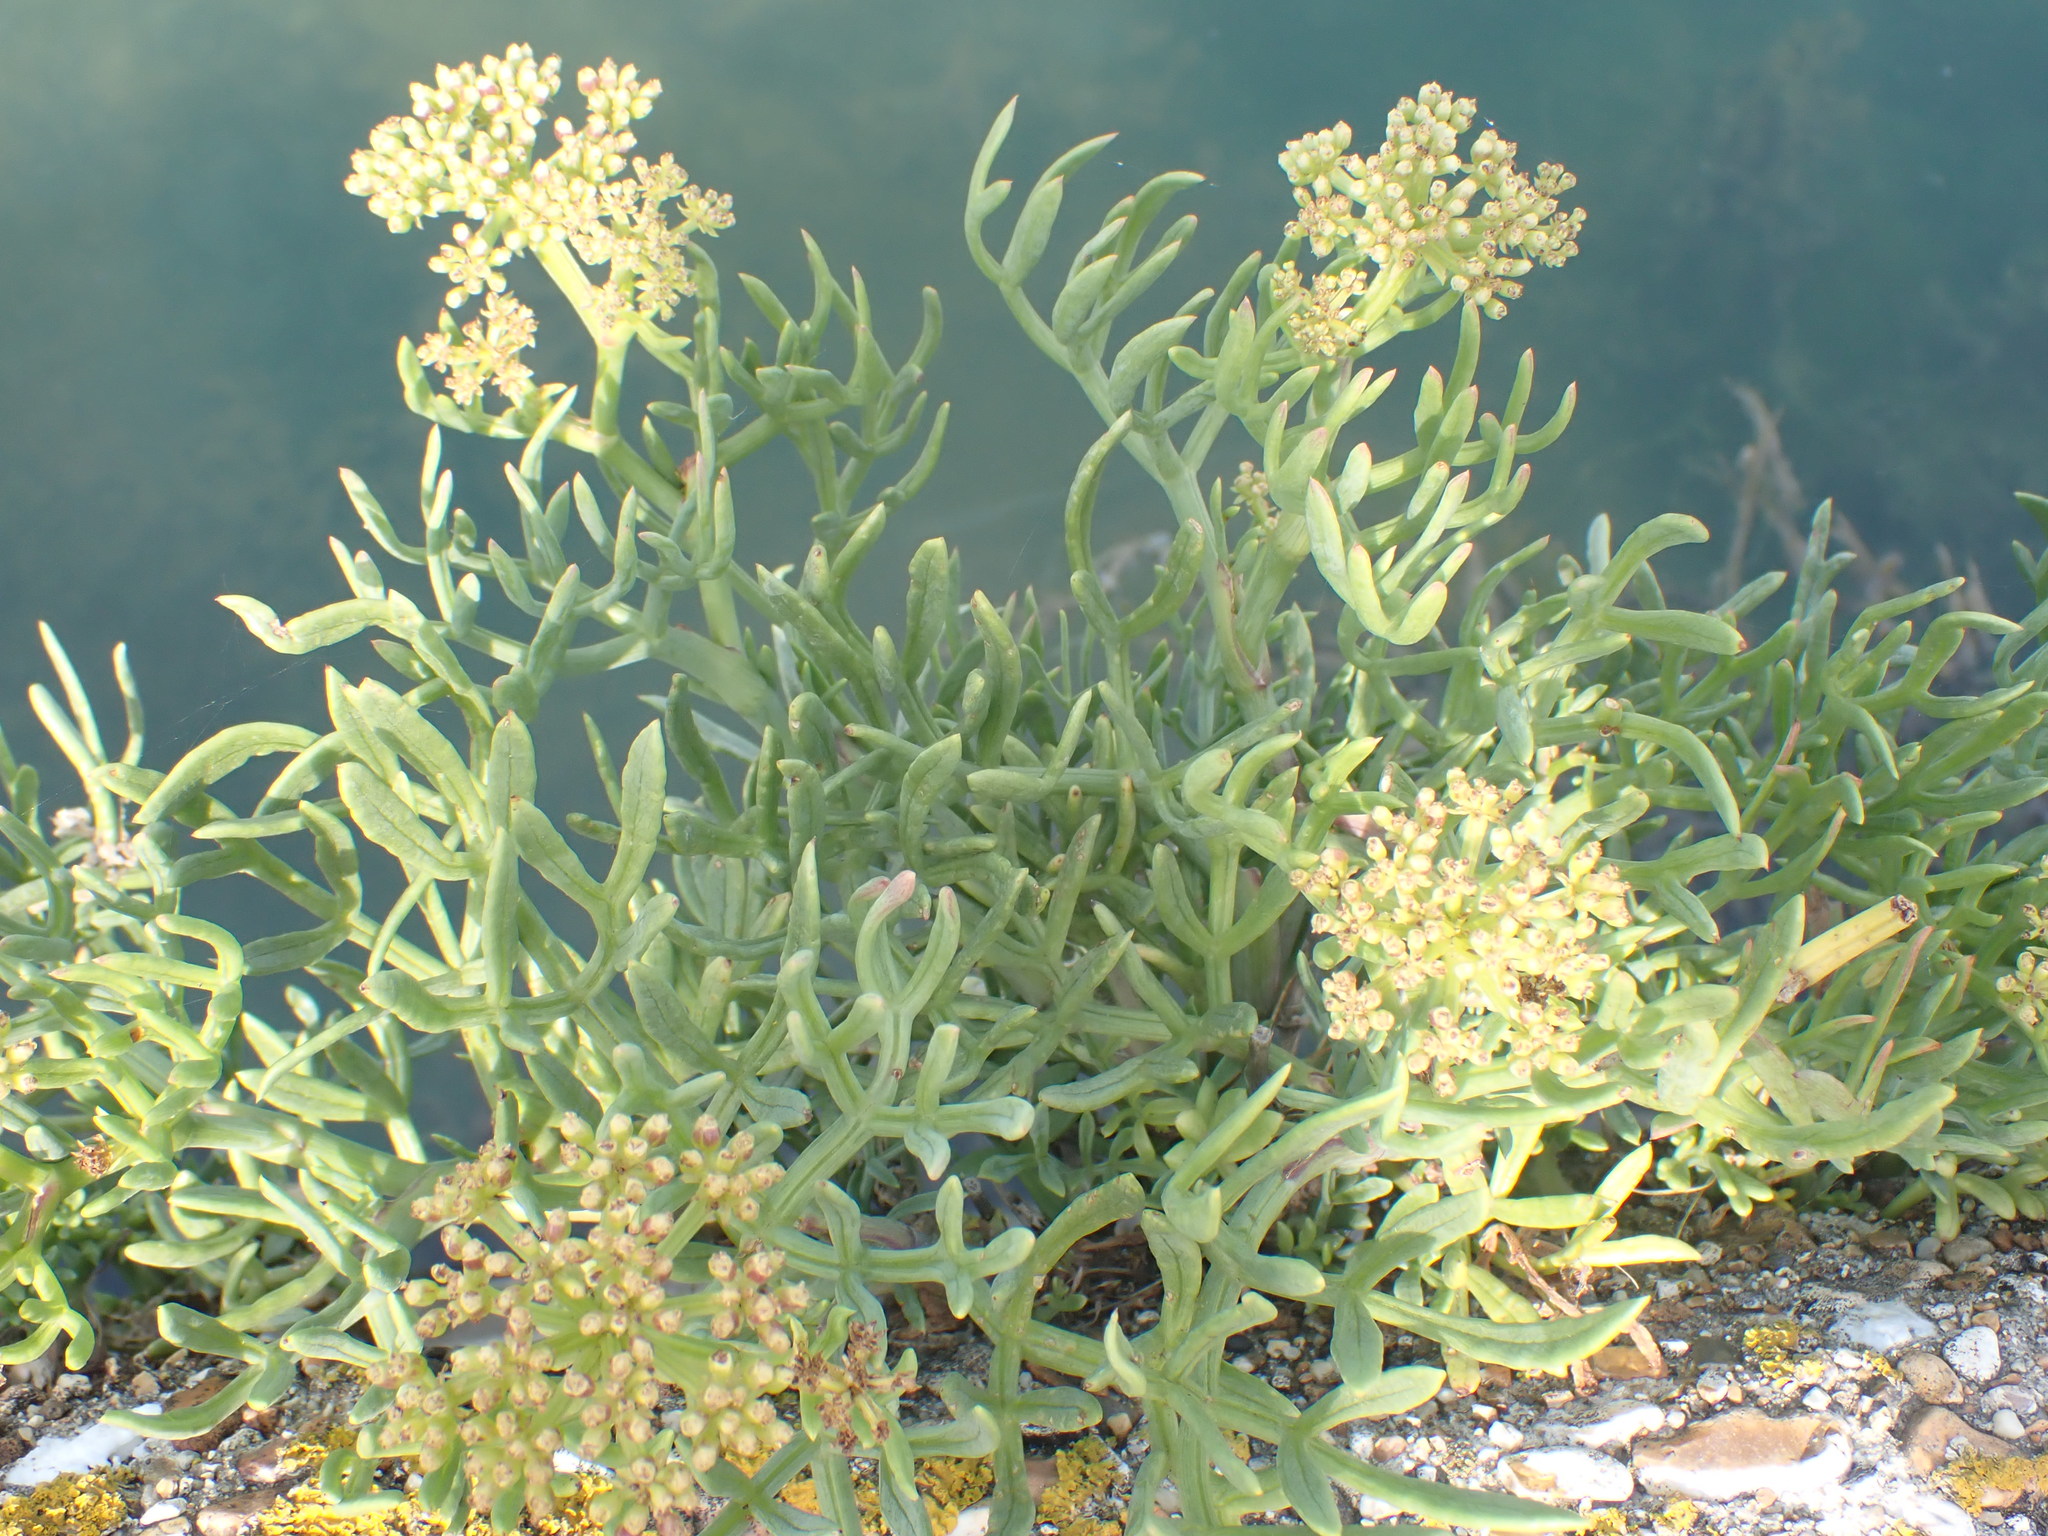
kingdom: Plantae
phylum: Tracheophyta
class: Magnoliopsida
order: Apiales
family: Apiaceae
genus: Crithmum
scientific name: Crithmum maritimum
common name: Rock samphire
